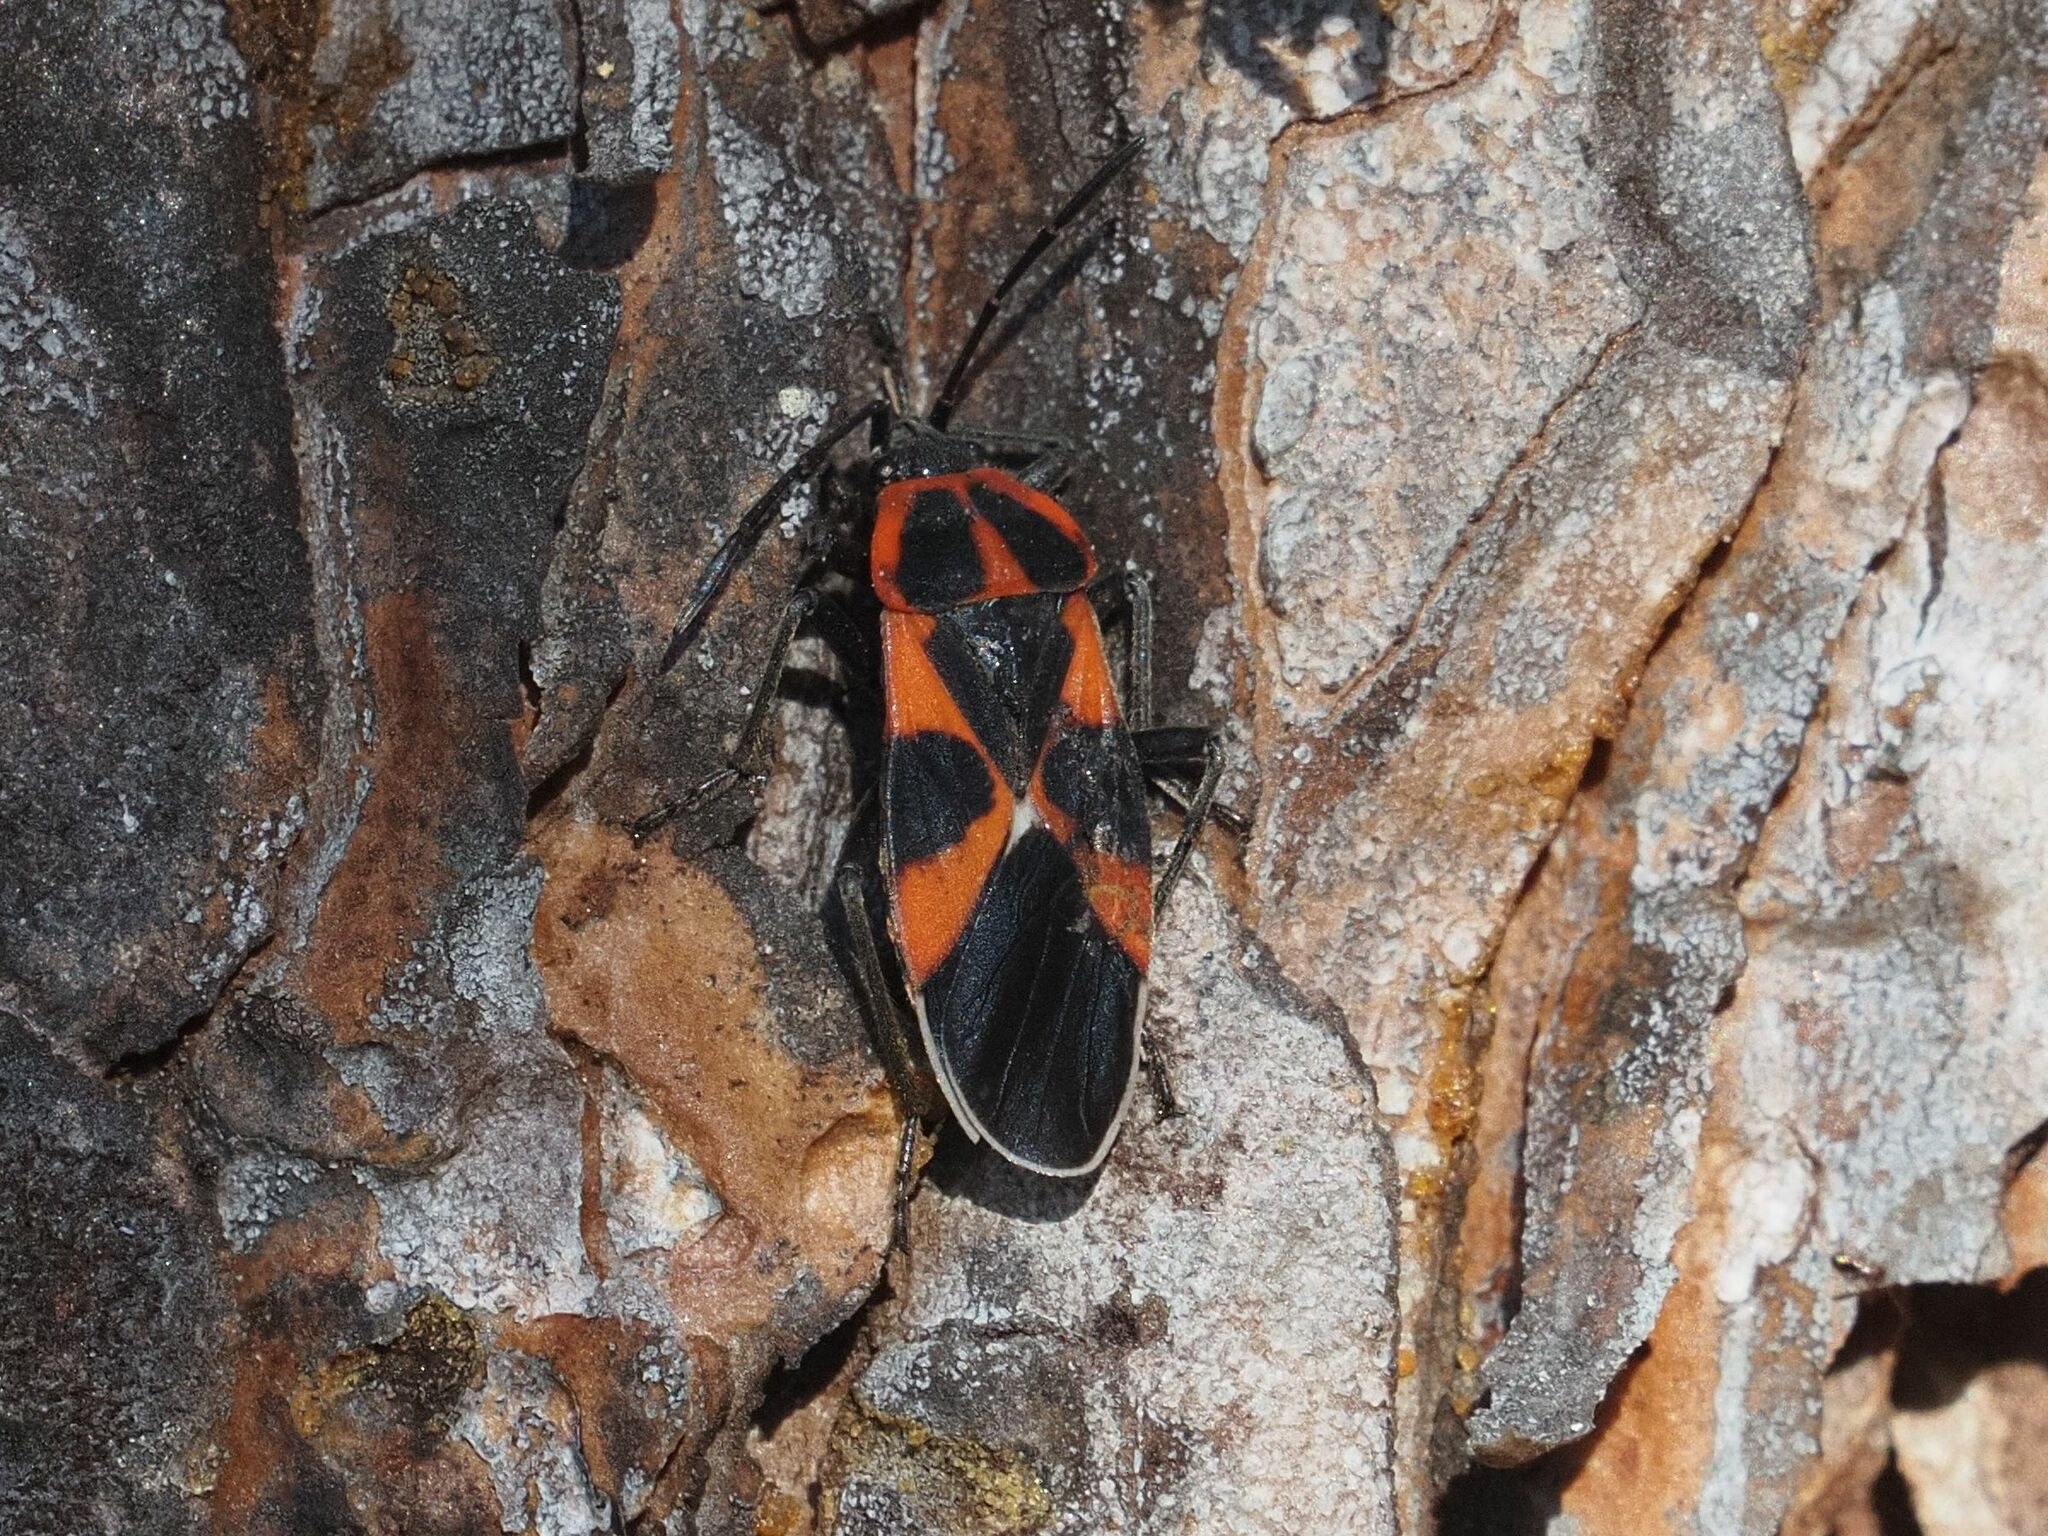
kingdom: Animalia
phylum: Arthropoda
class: Insecta
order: Hemiptera
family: Lygaeidae
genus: Tropidothorax
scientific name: Tropidothorax leucopterus
